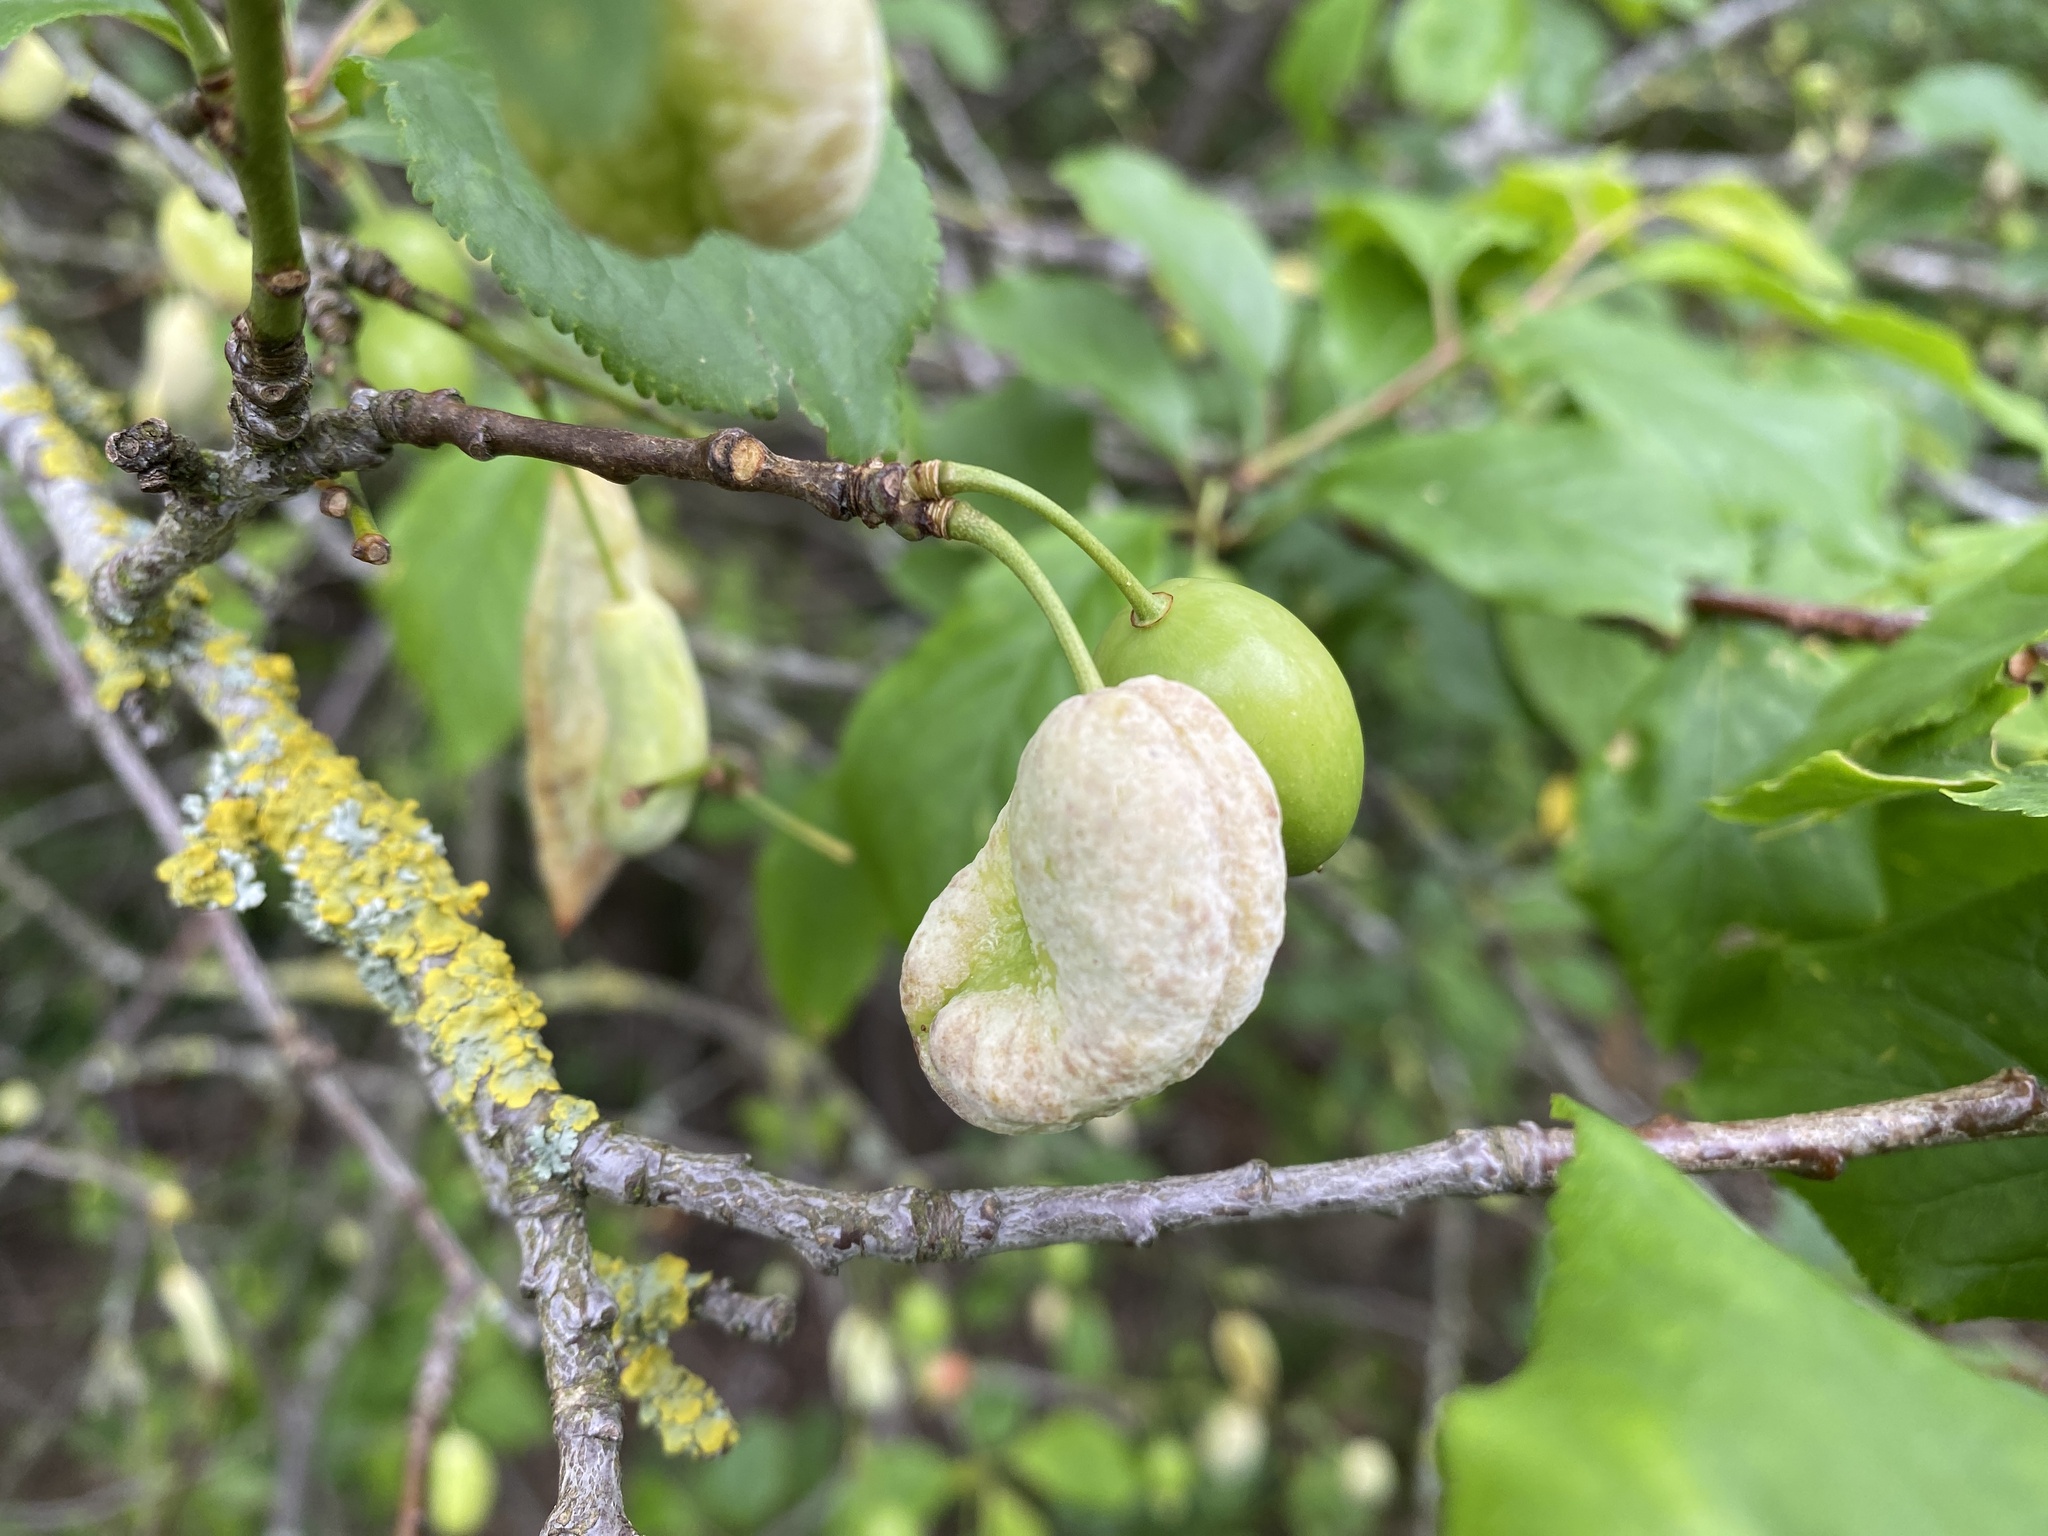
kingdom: Fungi
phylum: Ascomycota
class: Taphrinomycetes
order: Taphrinales
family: Taphrinaceae
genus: Taphrina
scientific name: Taphrina pruni
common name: Pocket plum
